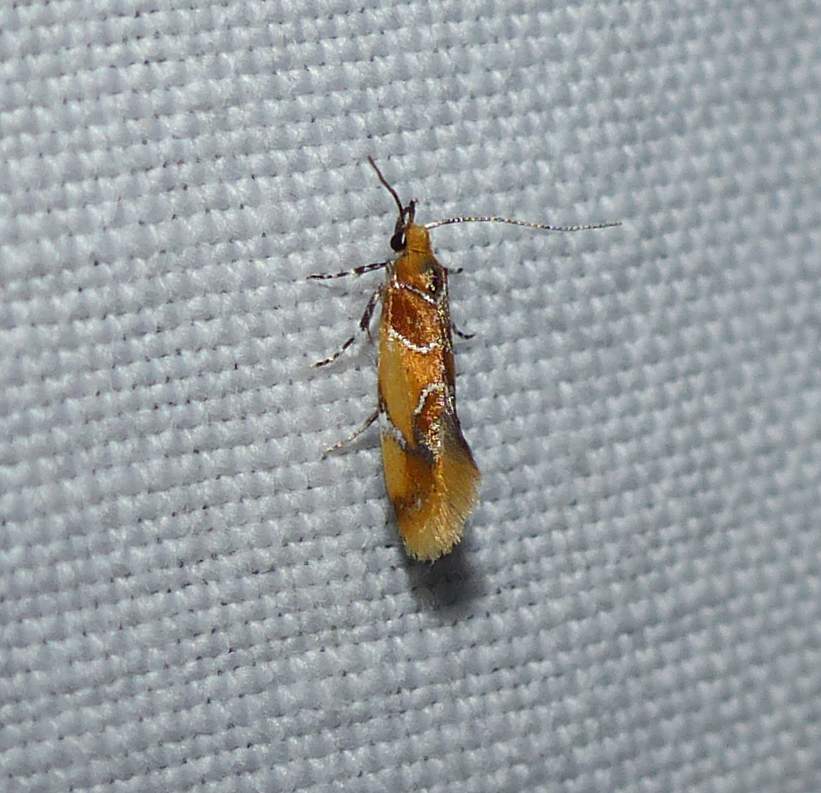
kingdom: Animalia
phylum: Arthropoda
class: Insecta
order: Lepidoptera
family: Oecophoridae
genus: Callima
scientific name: Callima argenticinctella
